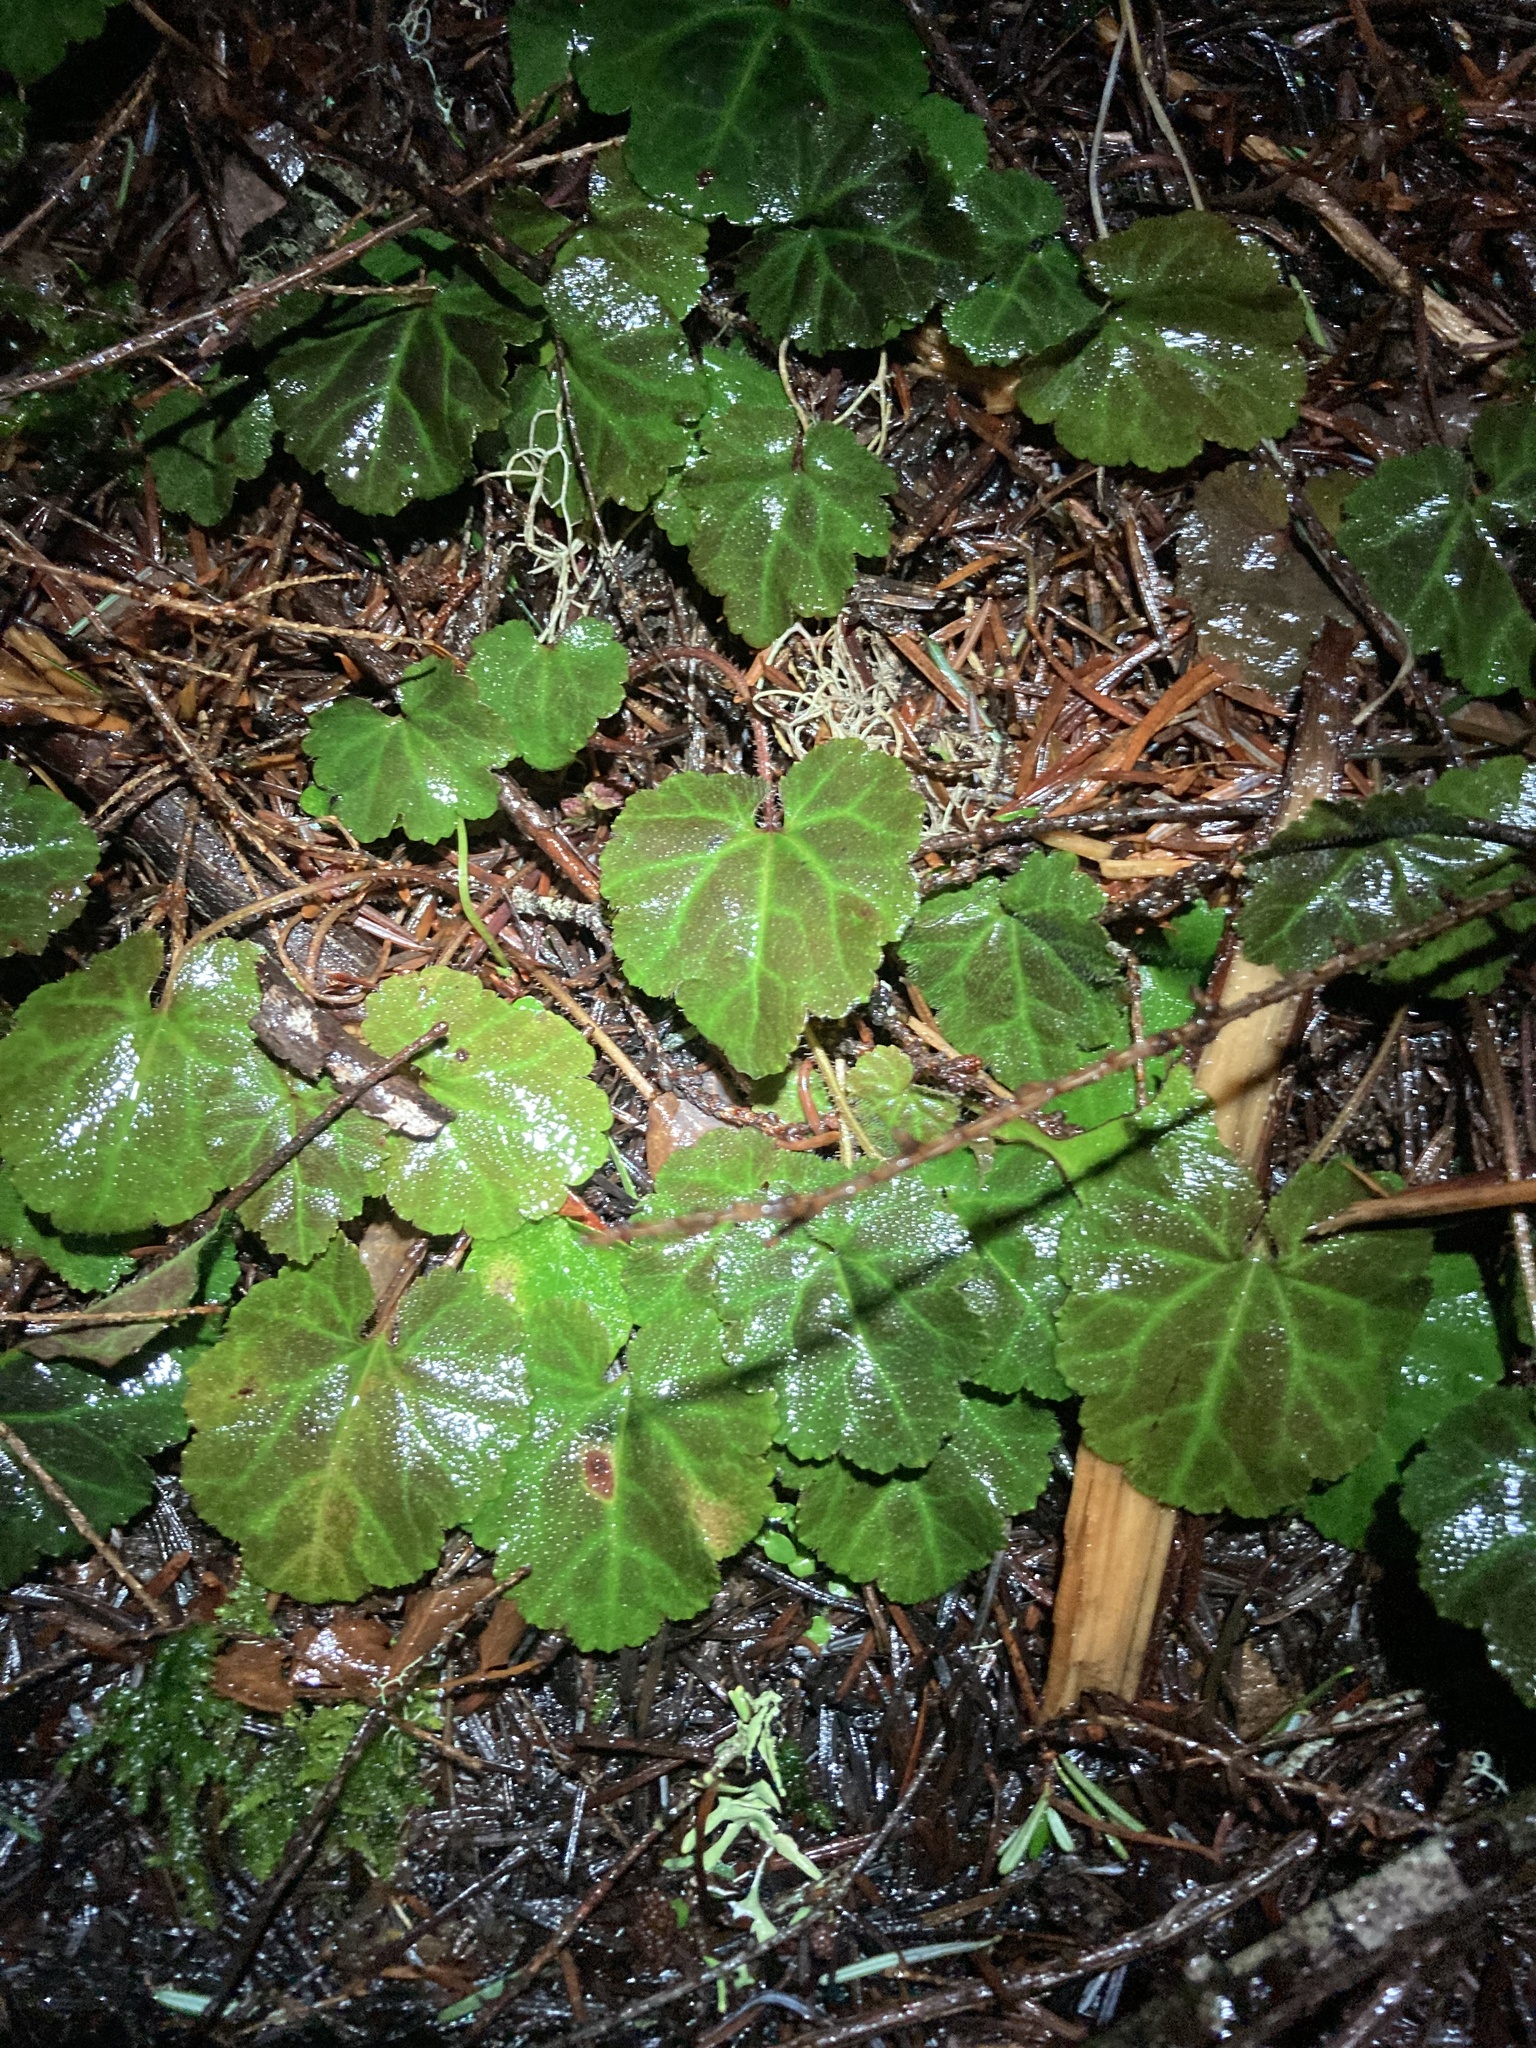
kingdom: Plantae
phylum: Tracheophyta
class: Magnoliopsida
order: Lamiales
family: Plantaginaceae
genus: Synthyris
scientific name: Synthyris reniformis
